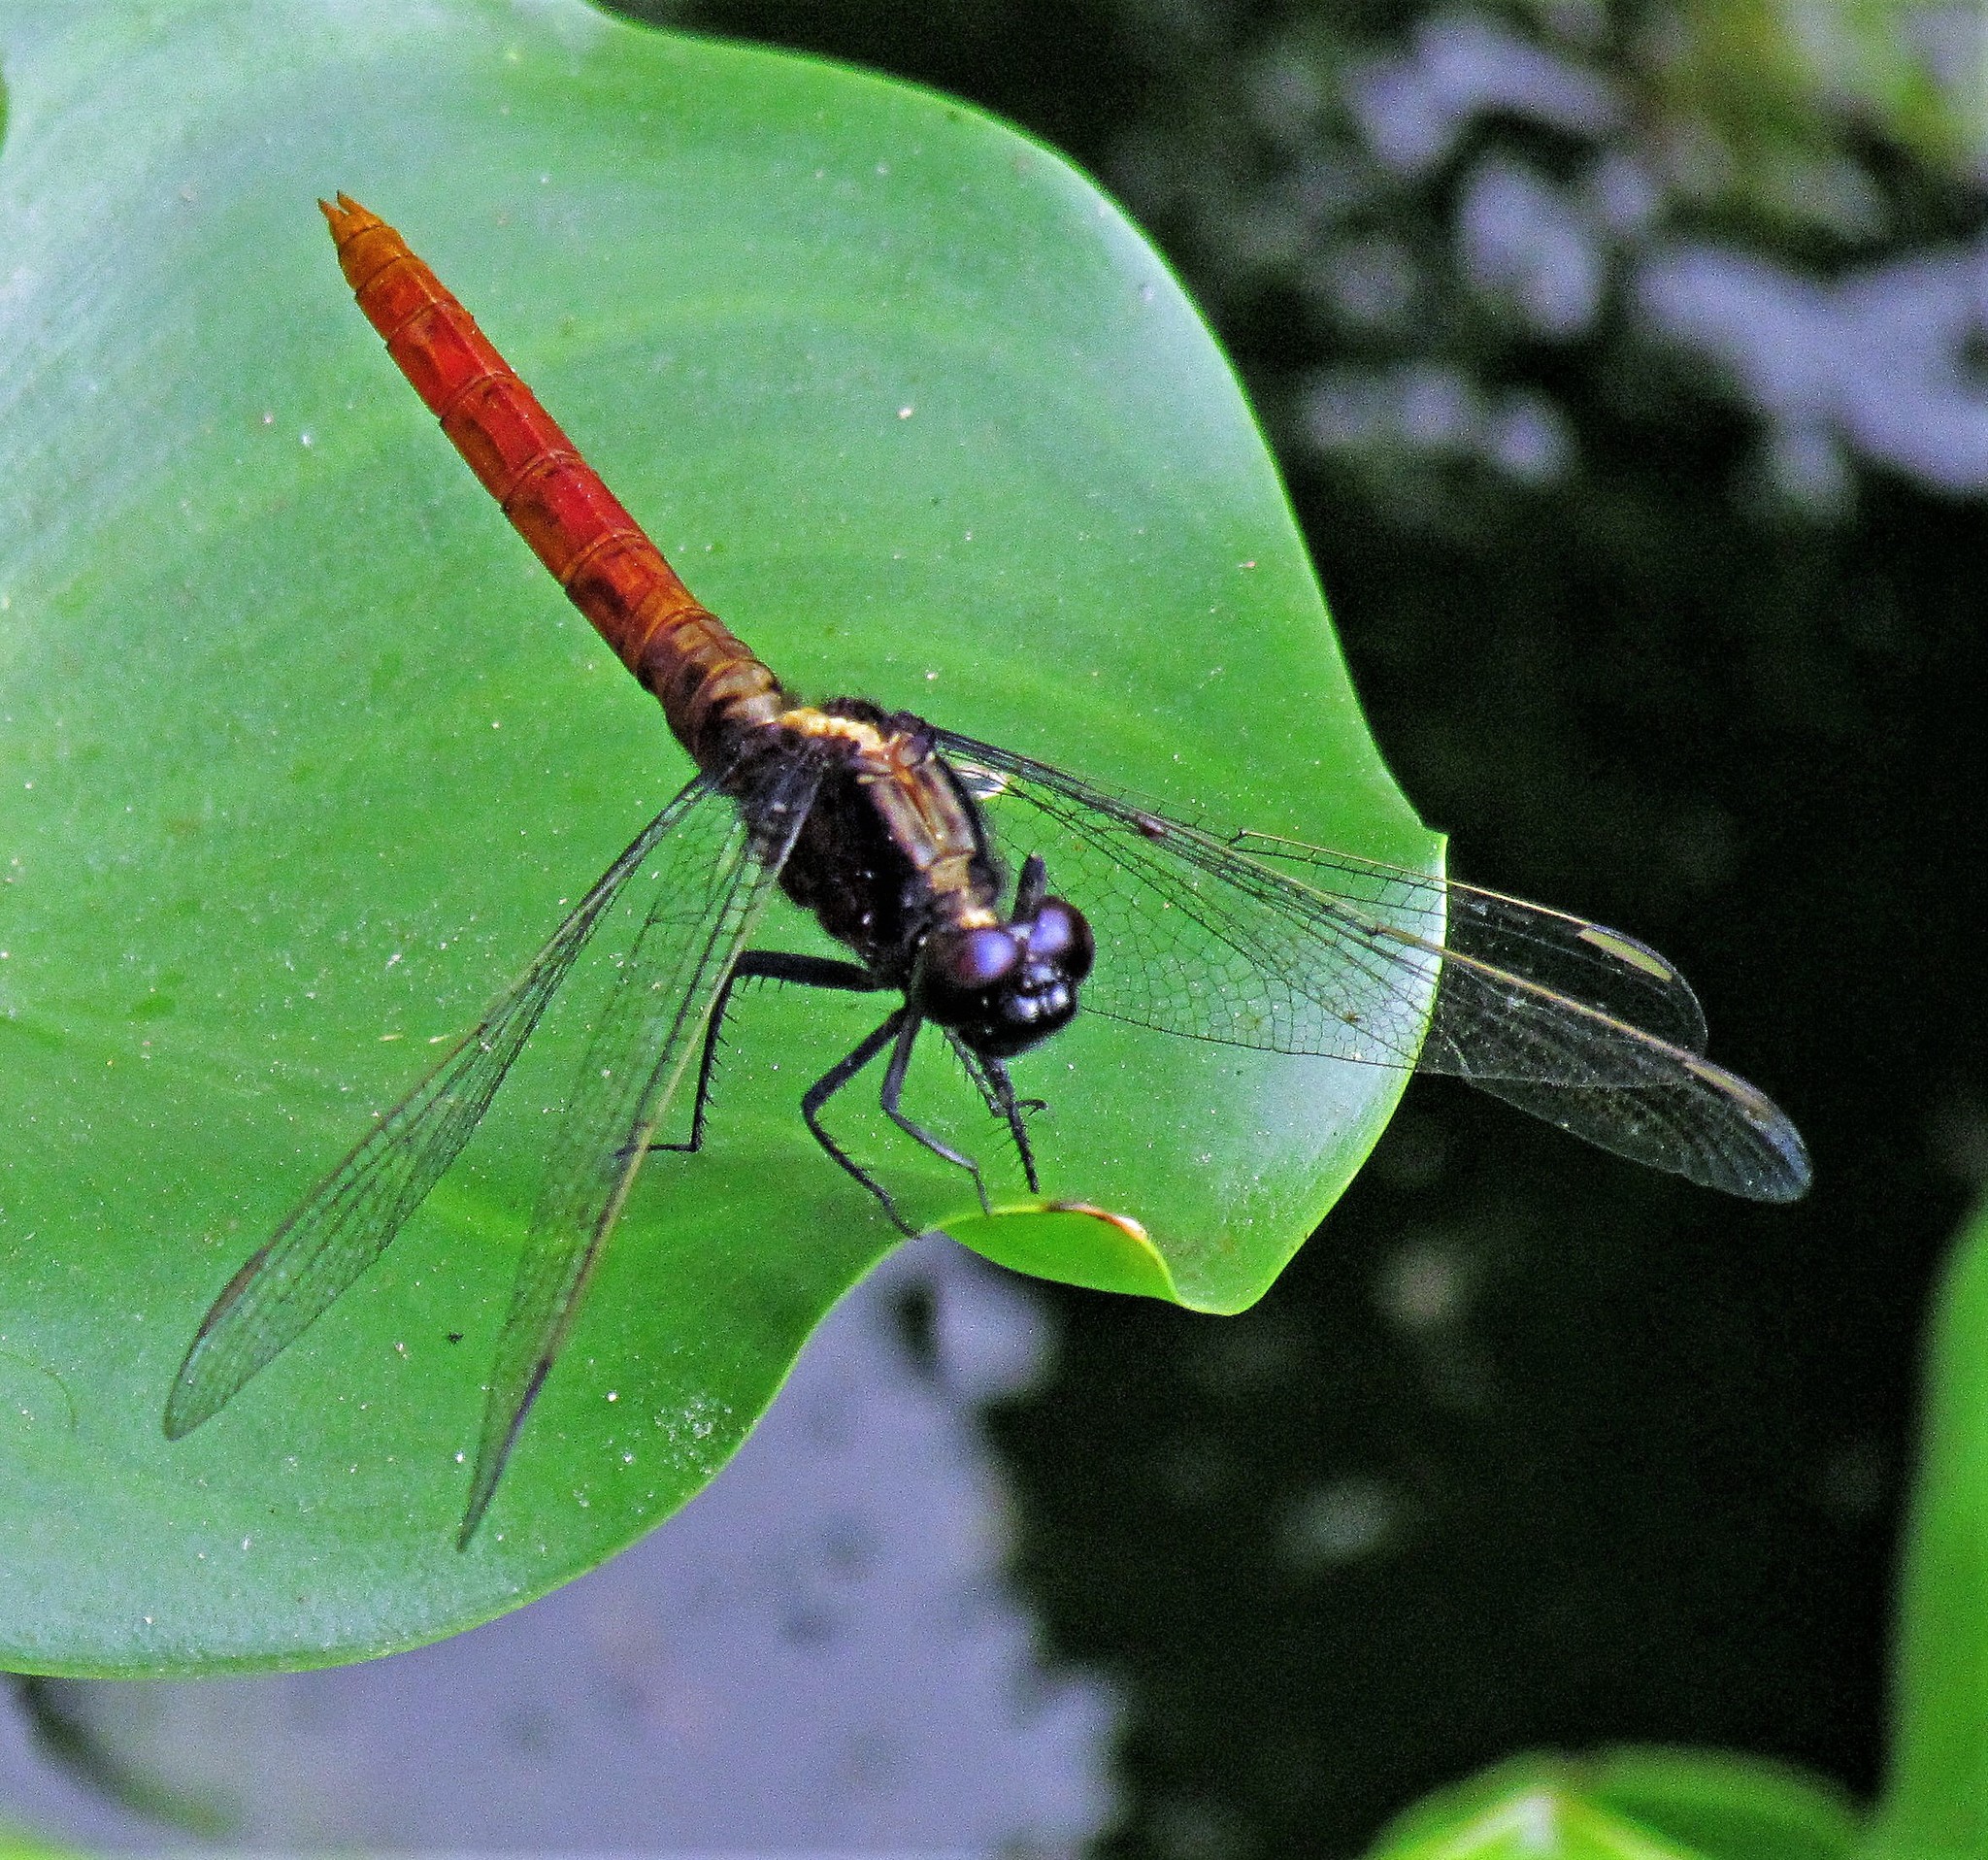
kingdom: Animalia
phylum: Arthropoda
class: Insecta
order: Odonata
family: Libellulidae
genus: Erythemis
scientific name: Erythemis peruviana
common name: Flame-tailed pondhawk
